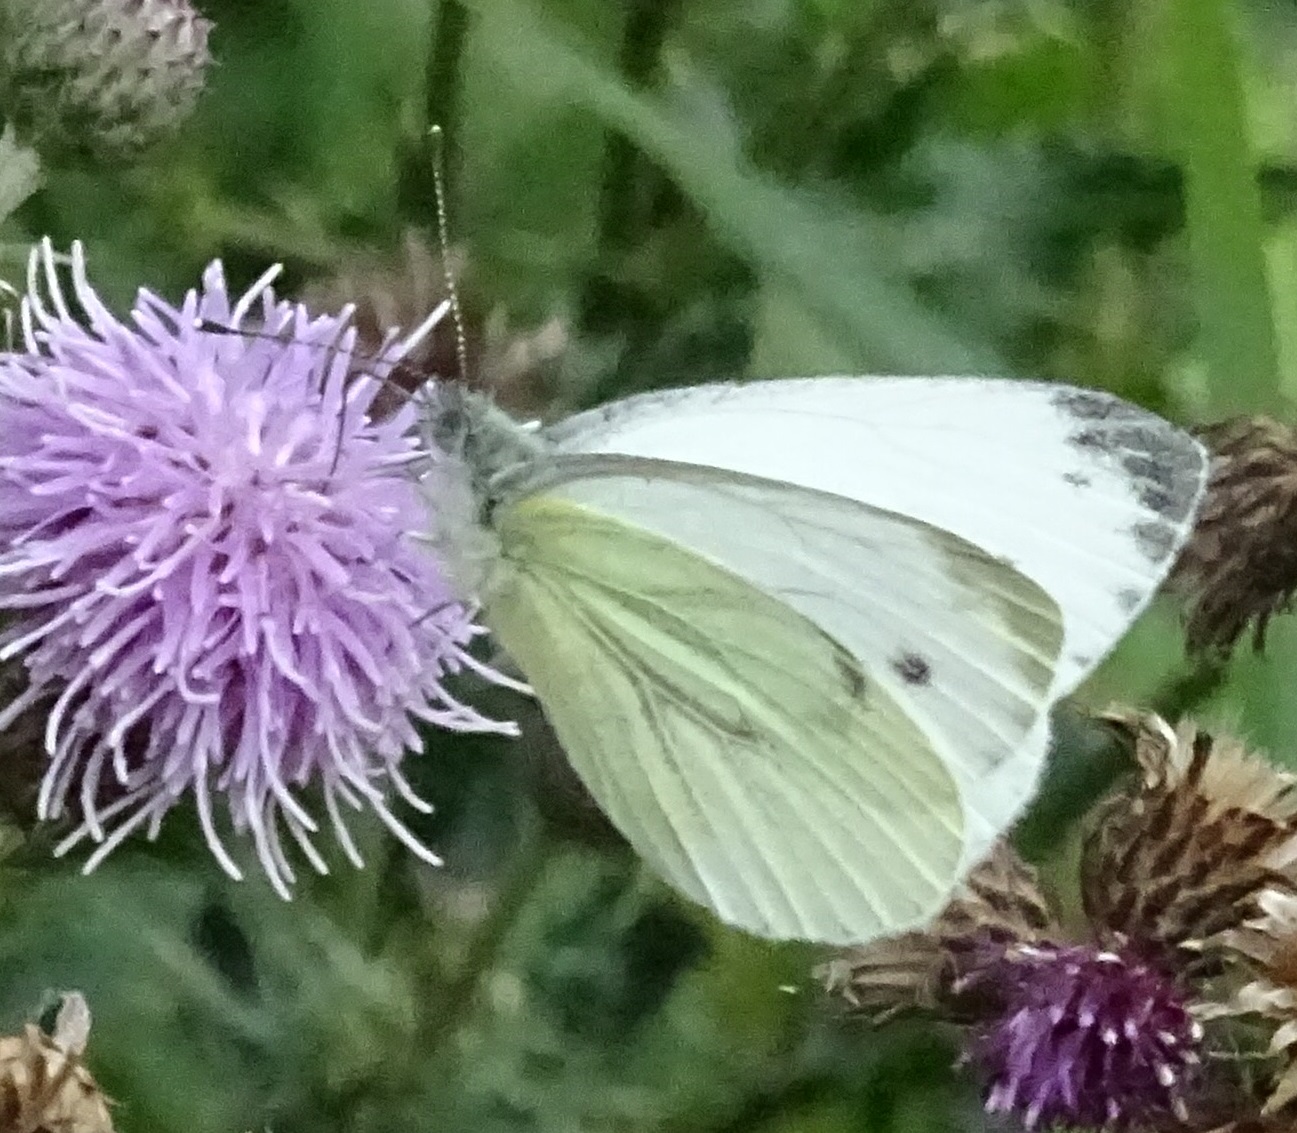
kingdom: Animalia
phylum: Arthropoda
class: Insecta
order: Lepidoptera
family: Pieridae
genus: Pieris
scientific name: Pieris napi
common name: Green-veined white
